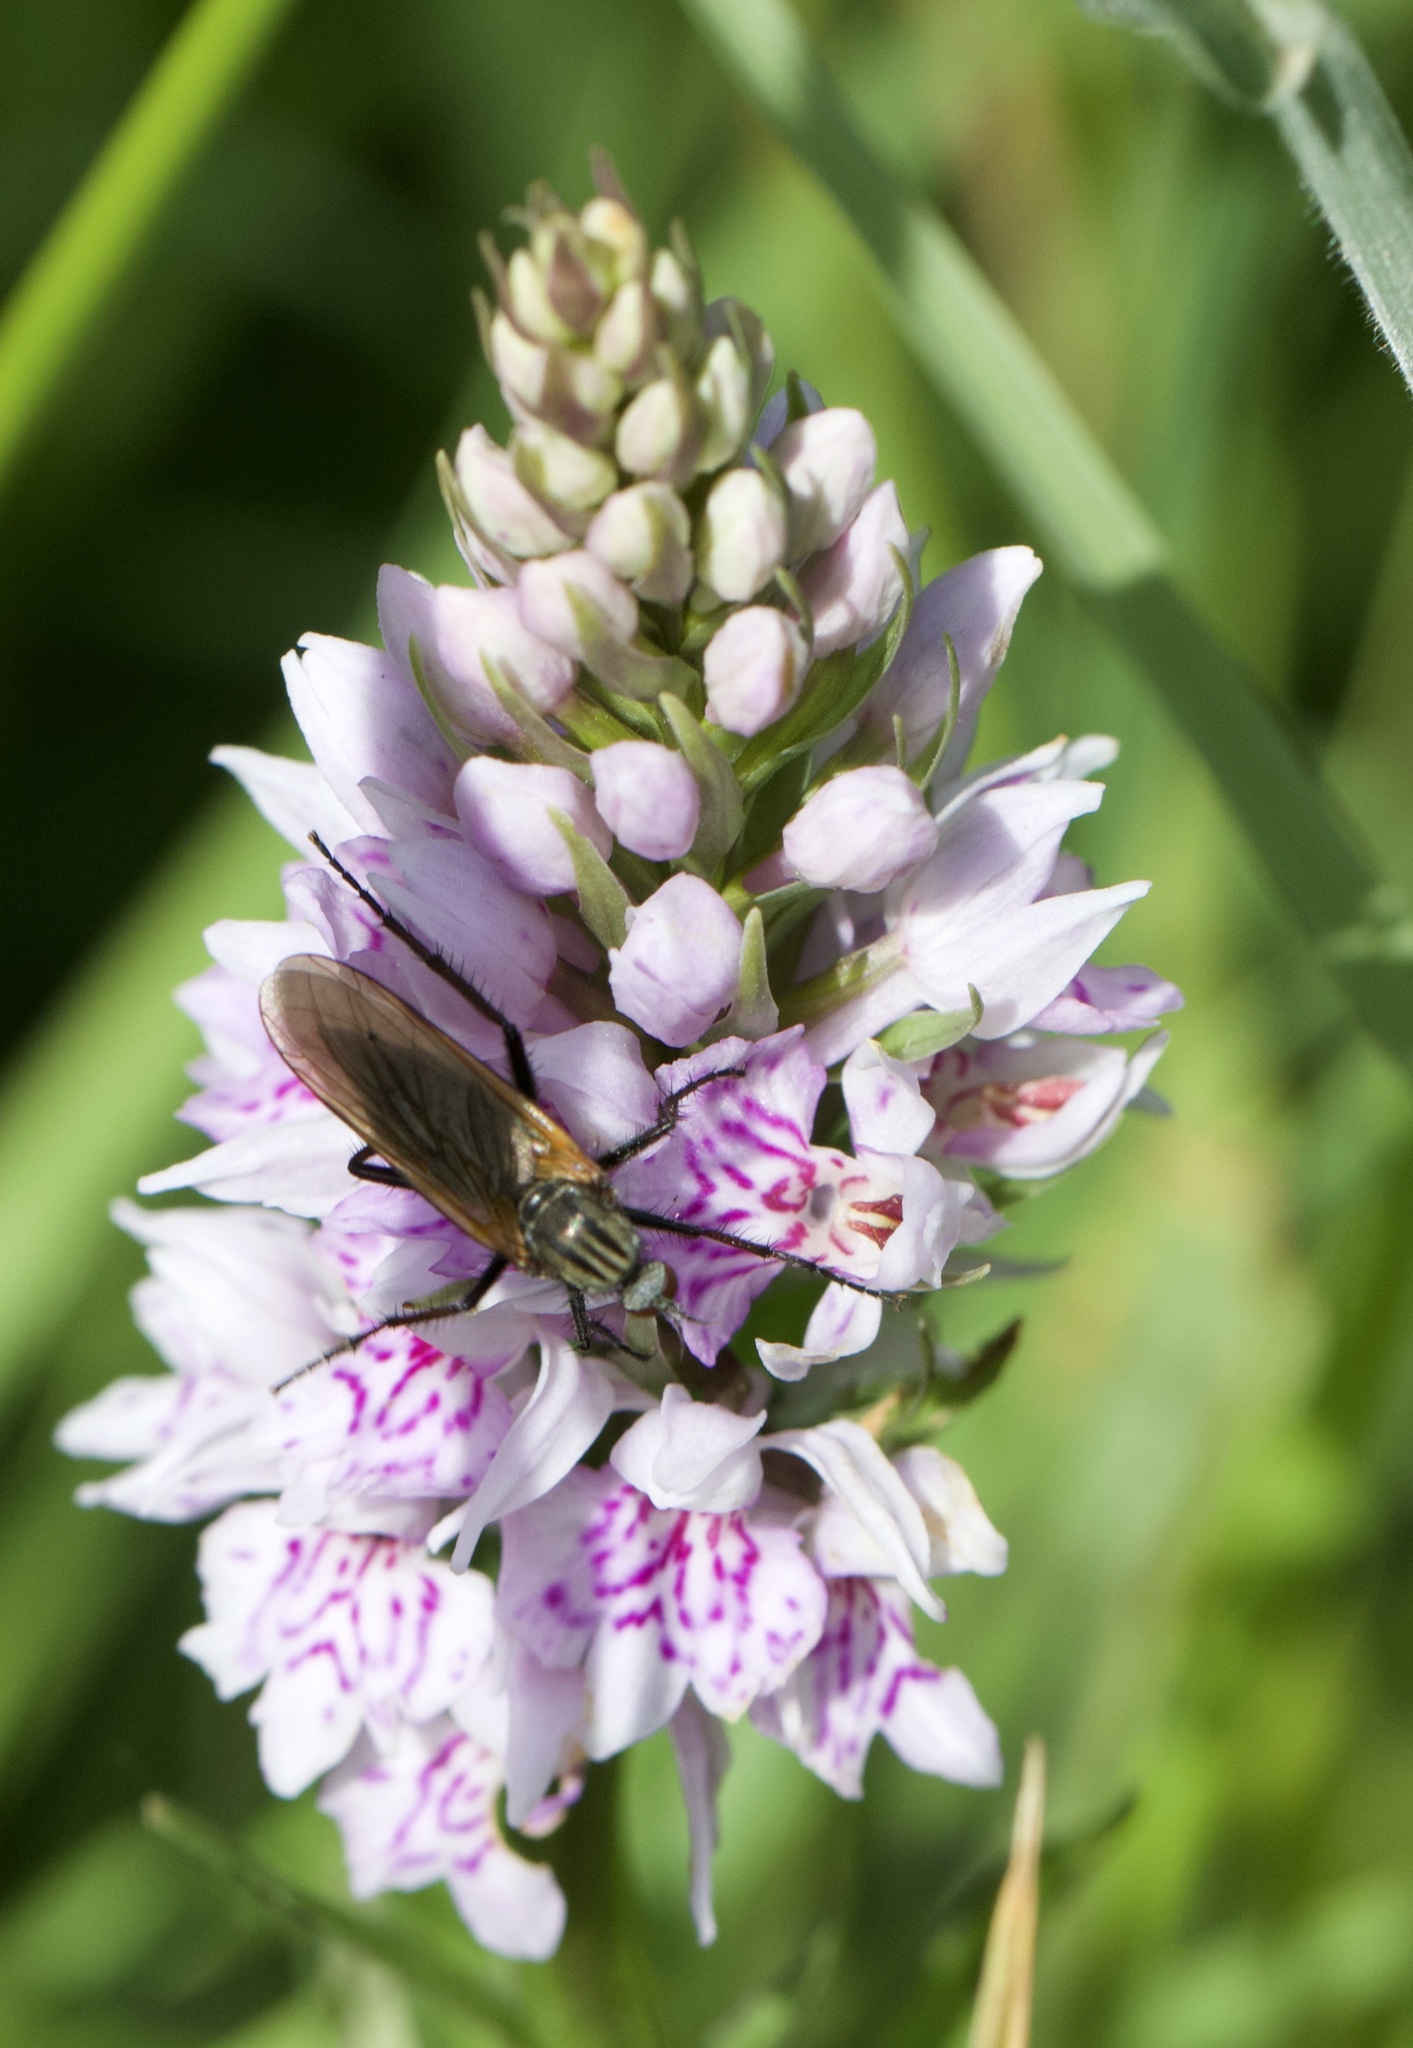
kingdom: Animalia
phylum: Arthropoda
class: Insecta
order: Diptera
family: Empididae
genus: Empis
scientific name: Empis tessellata
